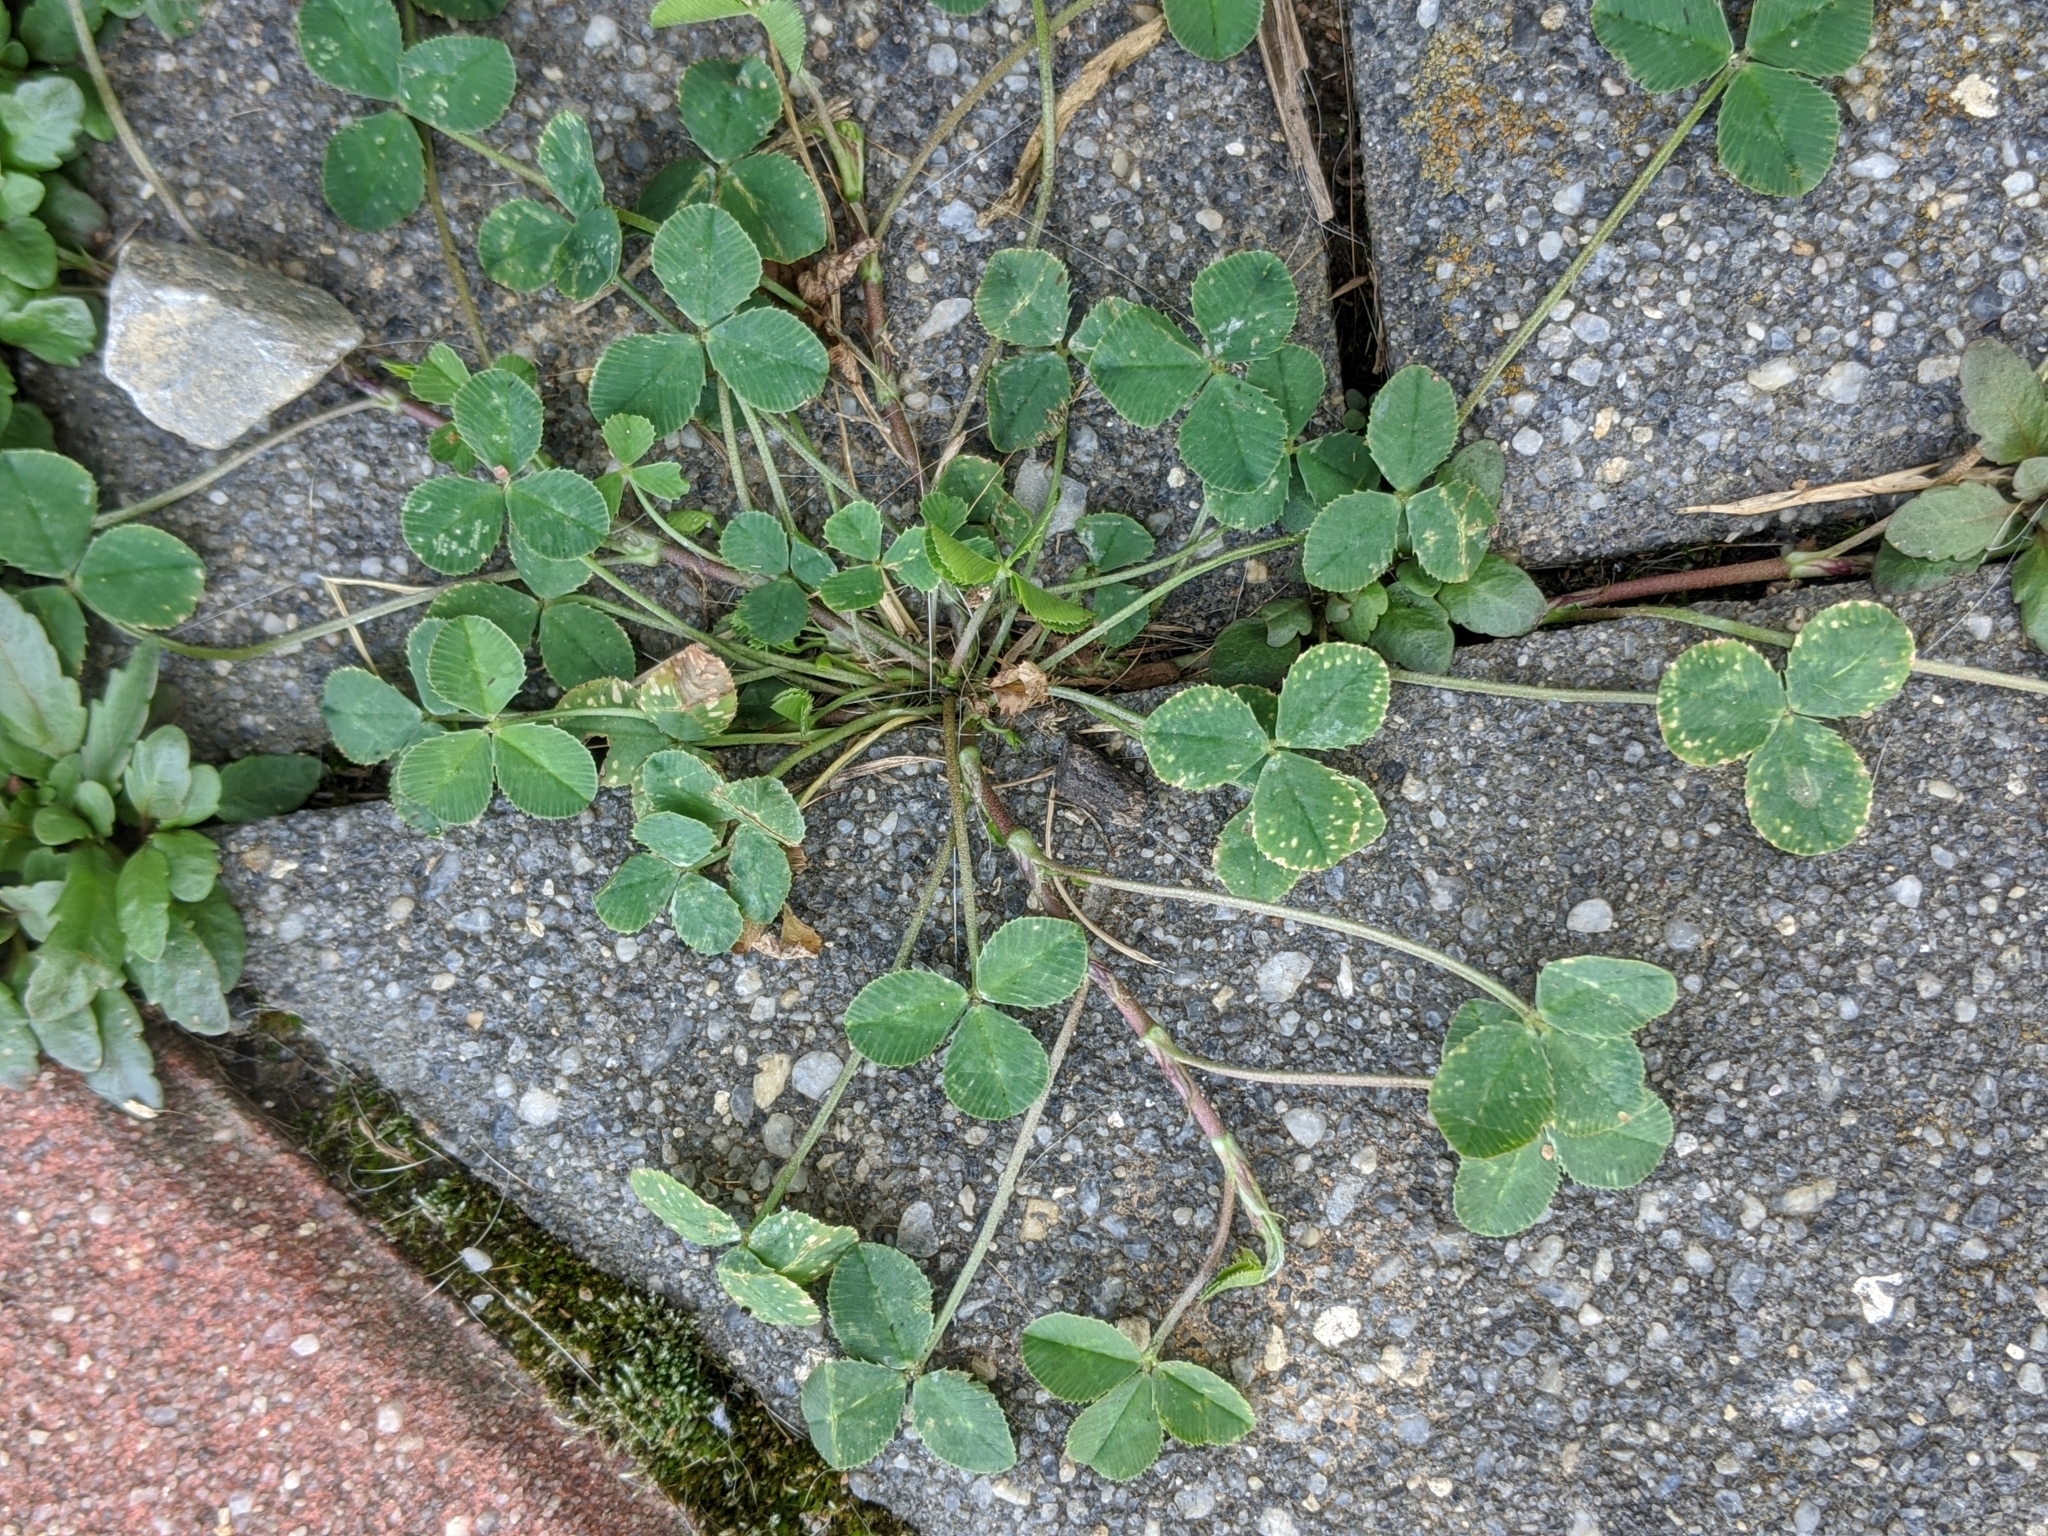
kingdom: Plantae
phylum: Tracheophyta
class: Magnoliopsida
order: Fabales
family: Fabaceae
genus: Trifolium
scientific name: Trifolium repens
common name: White clover
